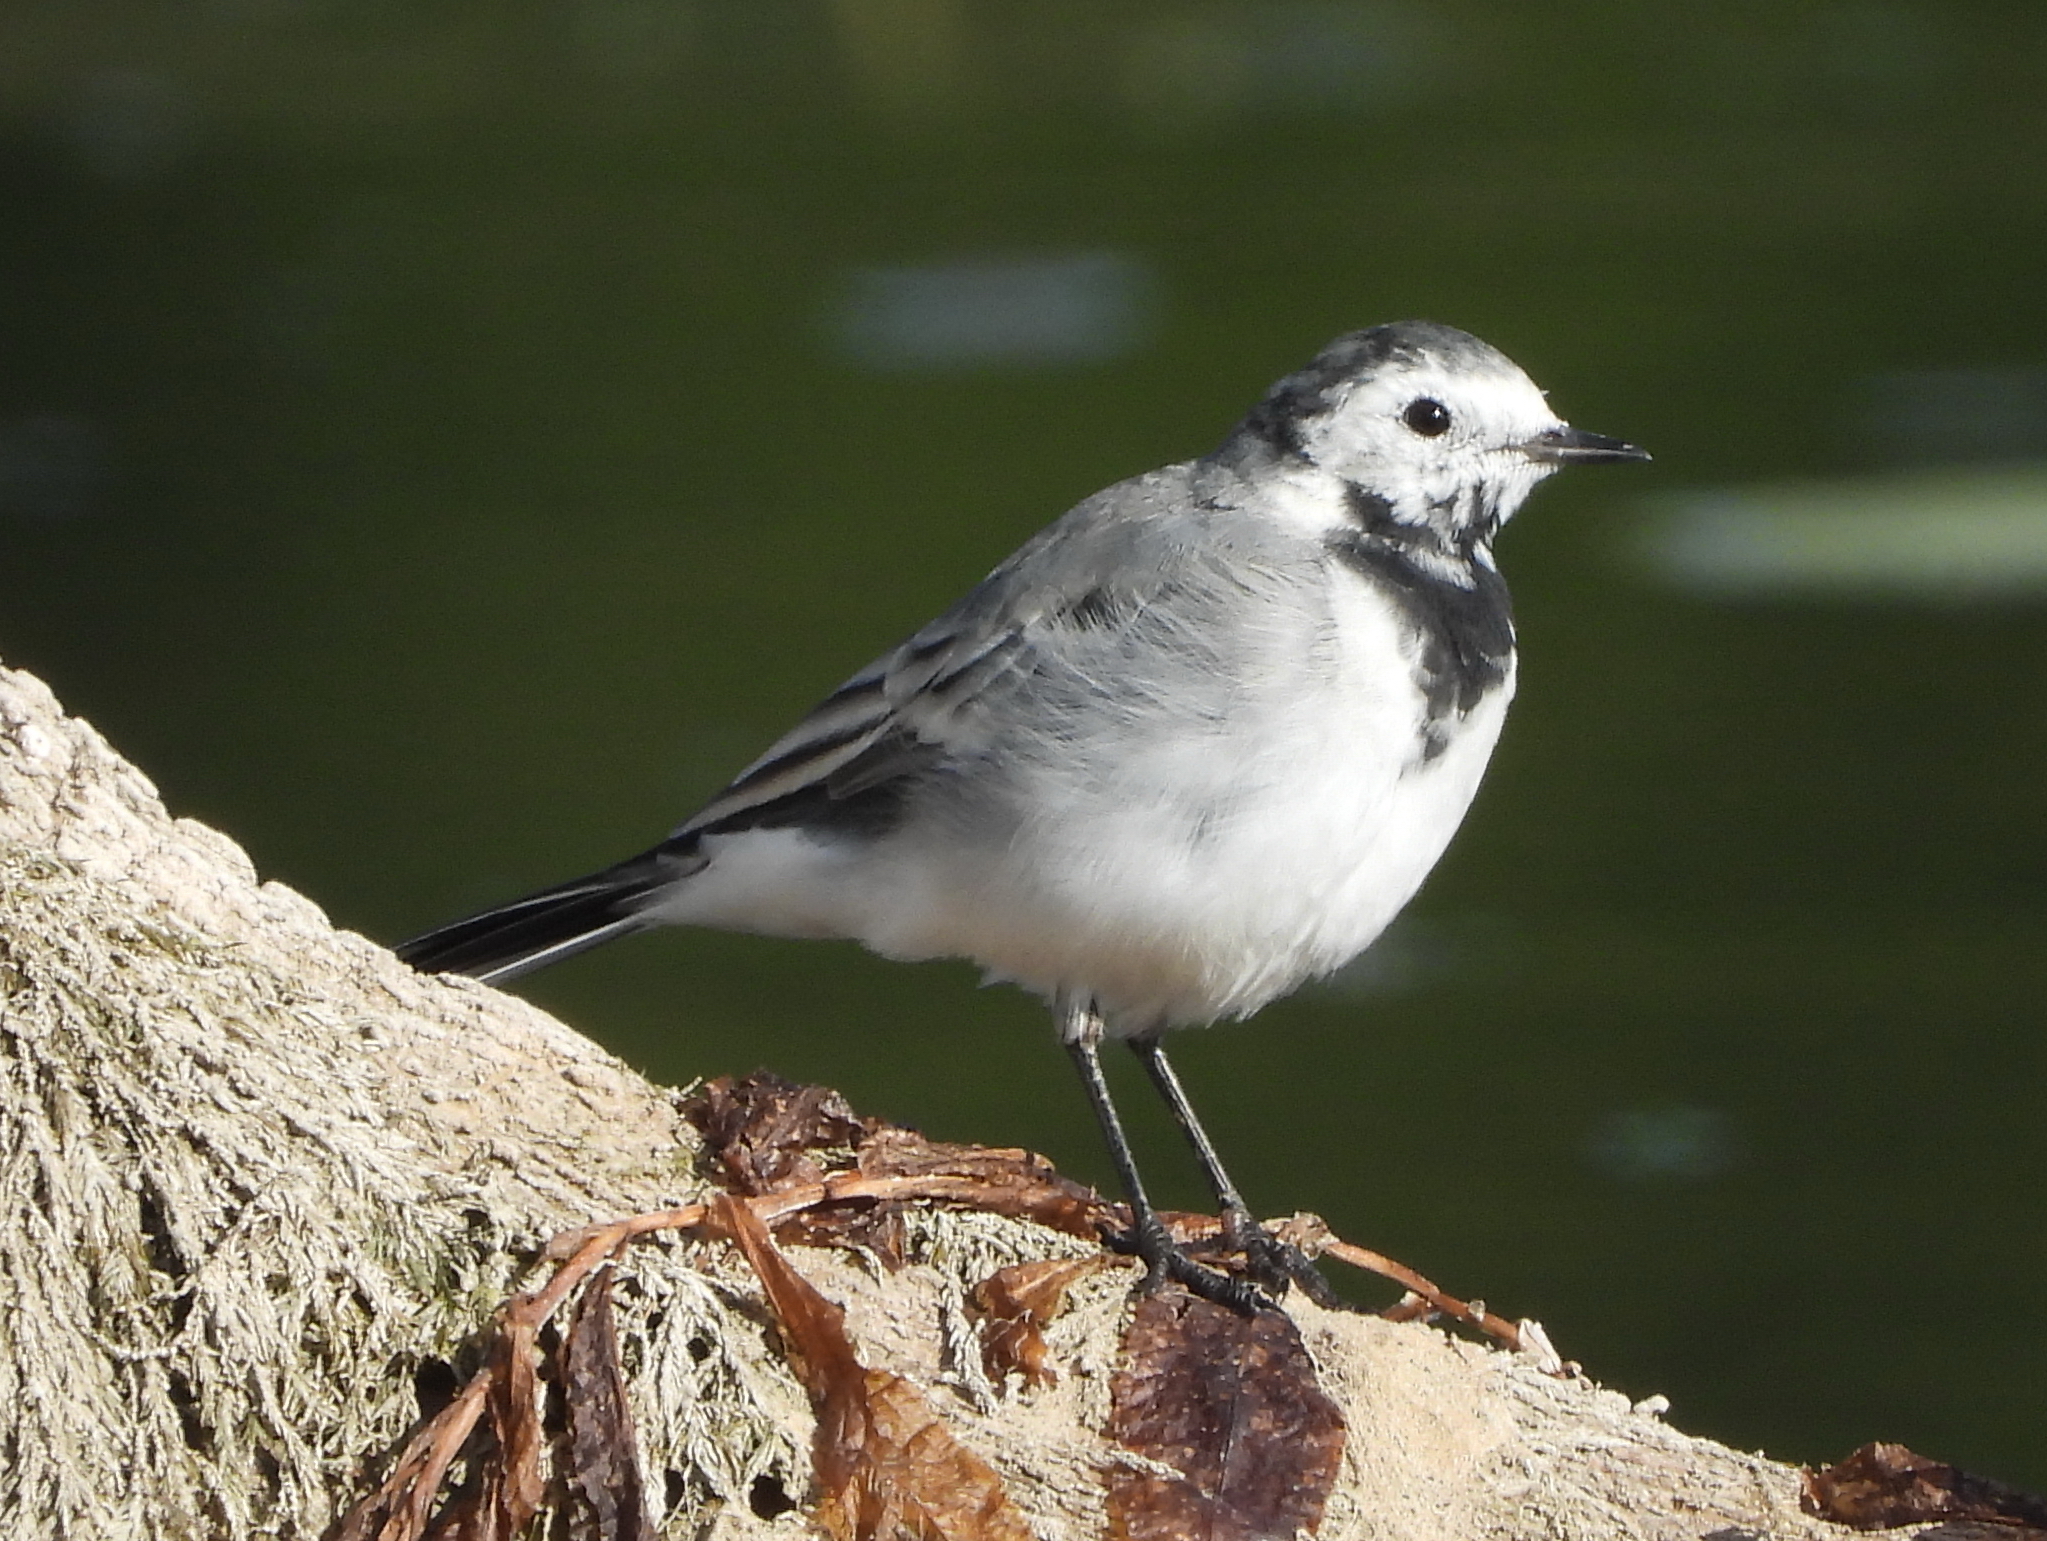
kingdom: Animalia
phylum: Chordata
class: Aves
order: Passeriformes
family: Motacillidae
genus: Motacilla
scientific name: Motacilla alba
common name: White wagtail
